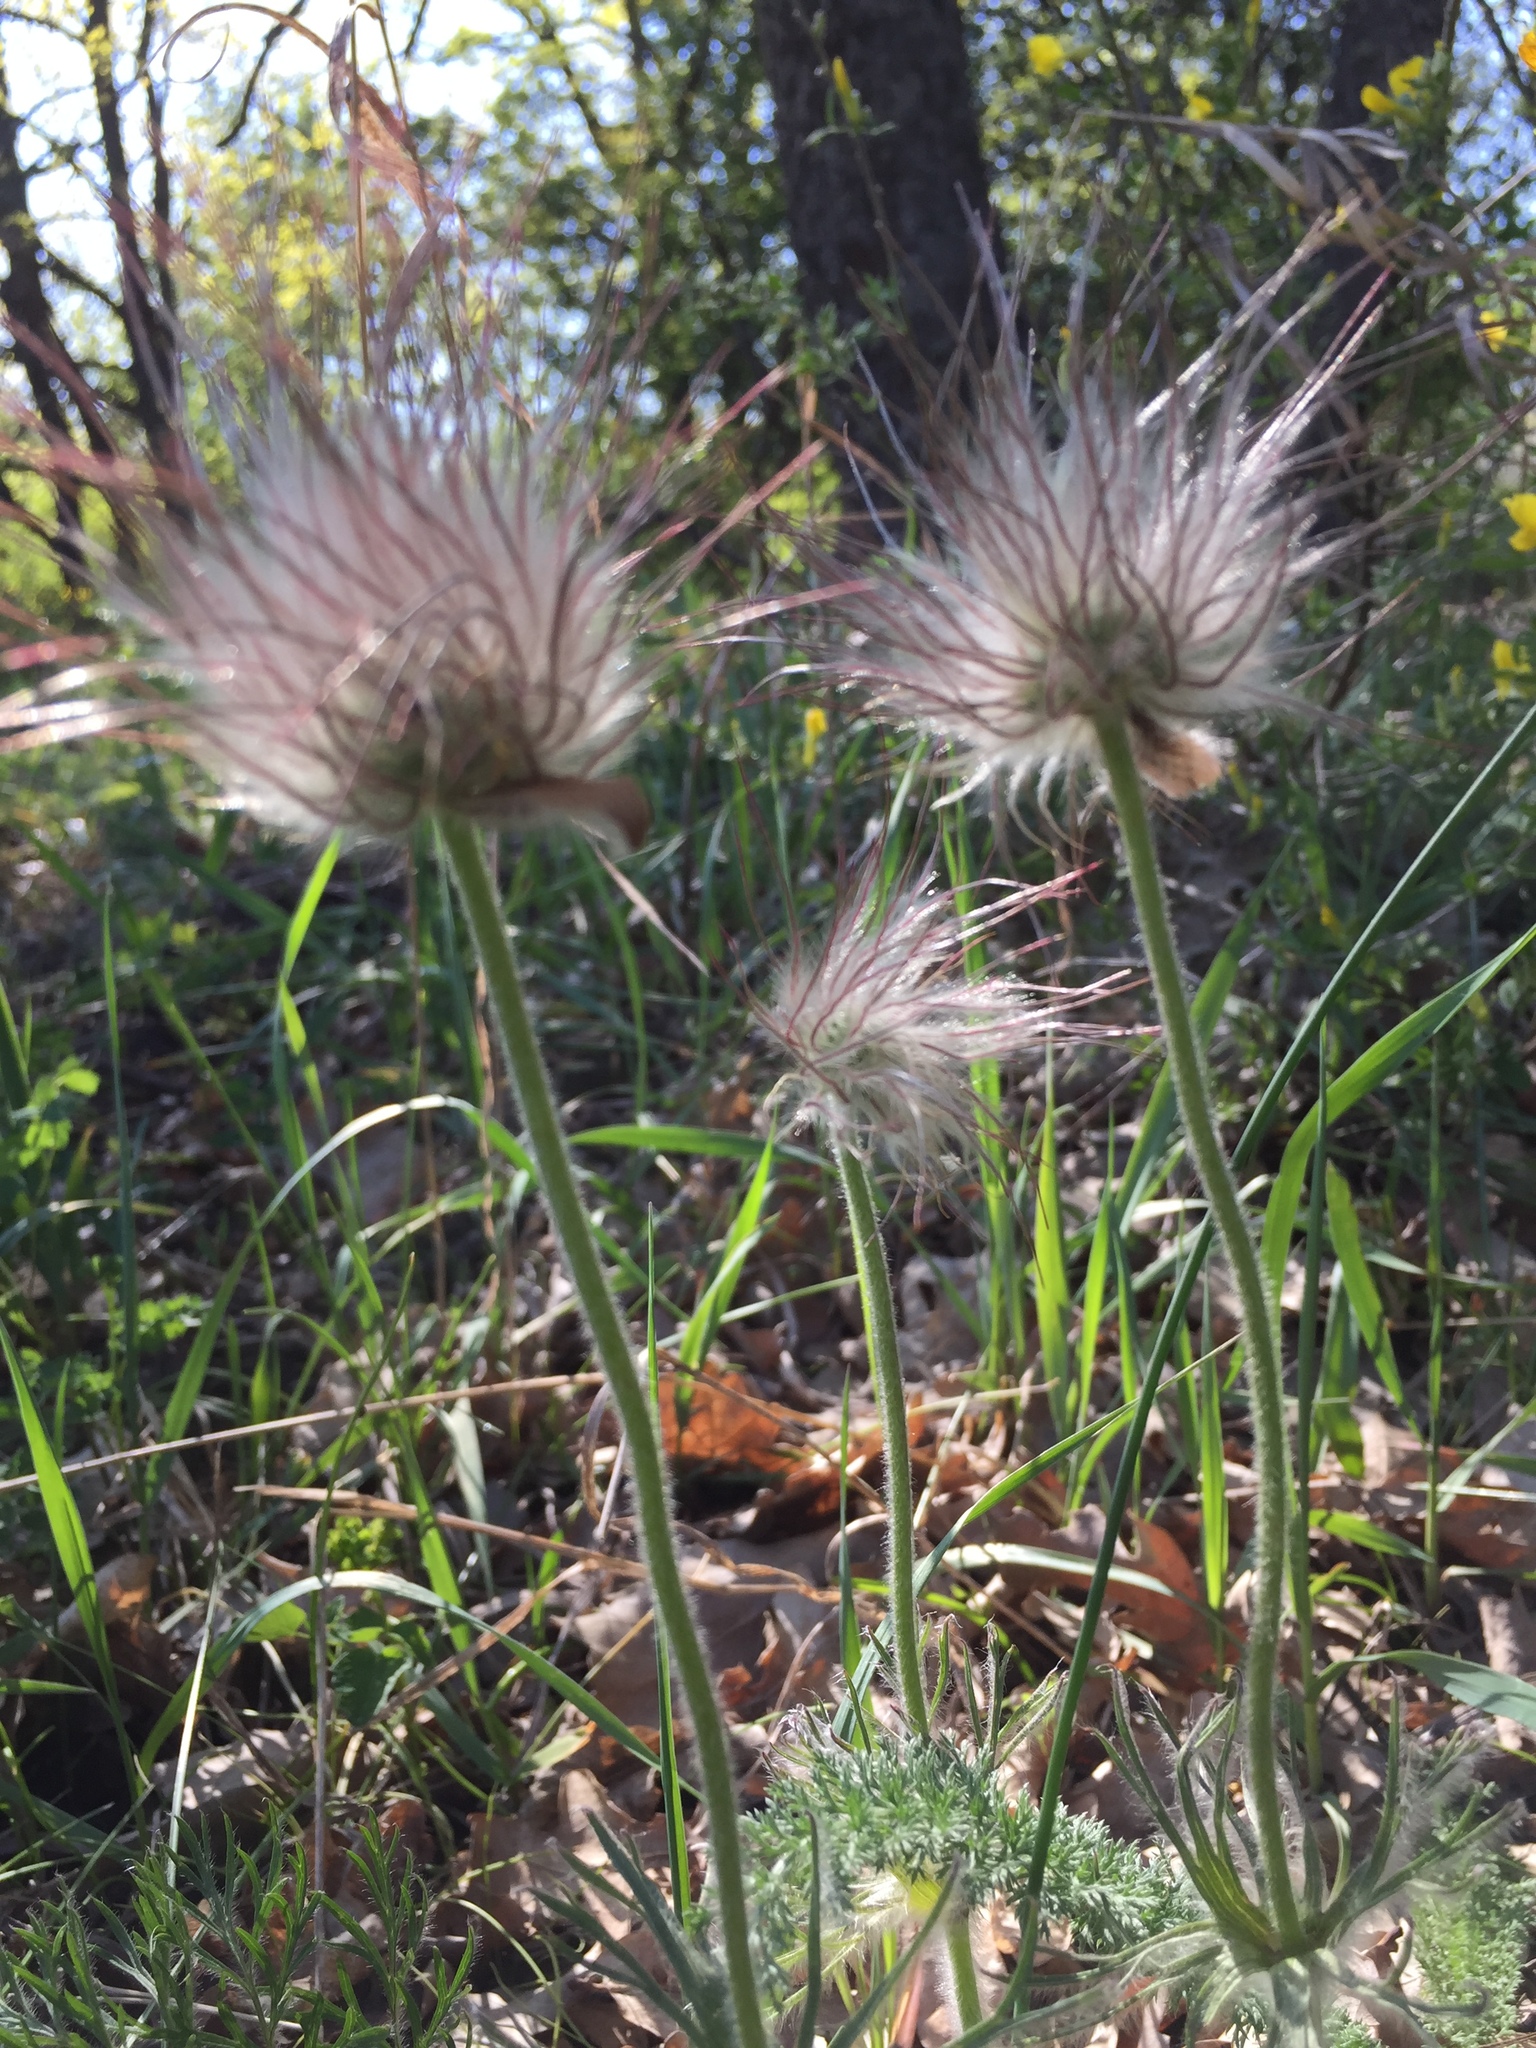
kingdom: Plantae
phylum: Tracheophyta
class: Magnoliopsida
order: Ranunculales
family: Ranunculaceae
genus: Pulsatilla
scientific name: Pulsatilla patens
